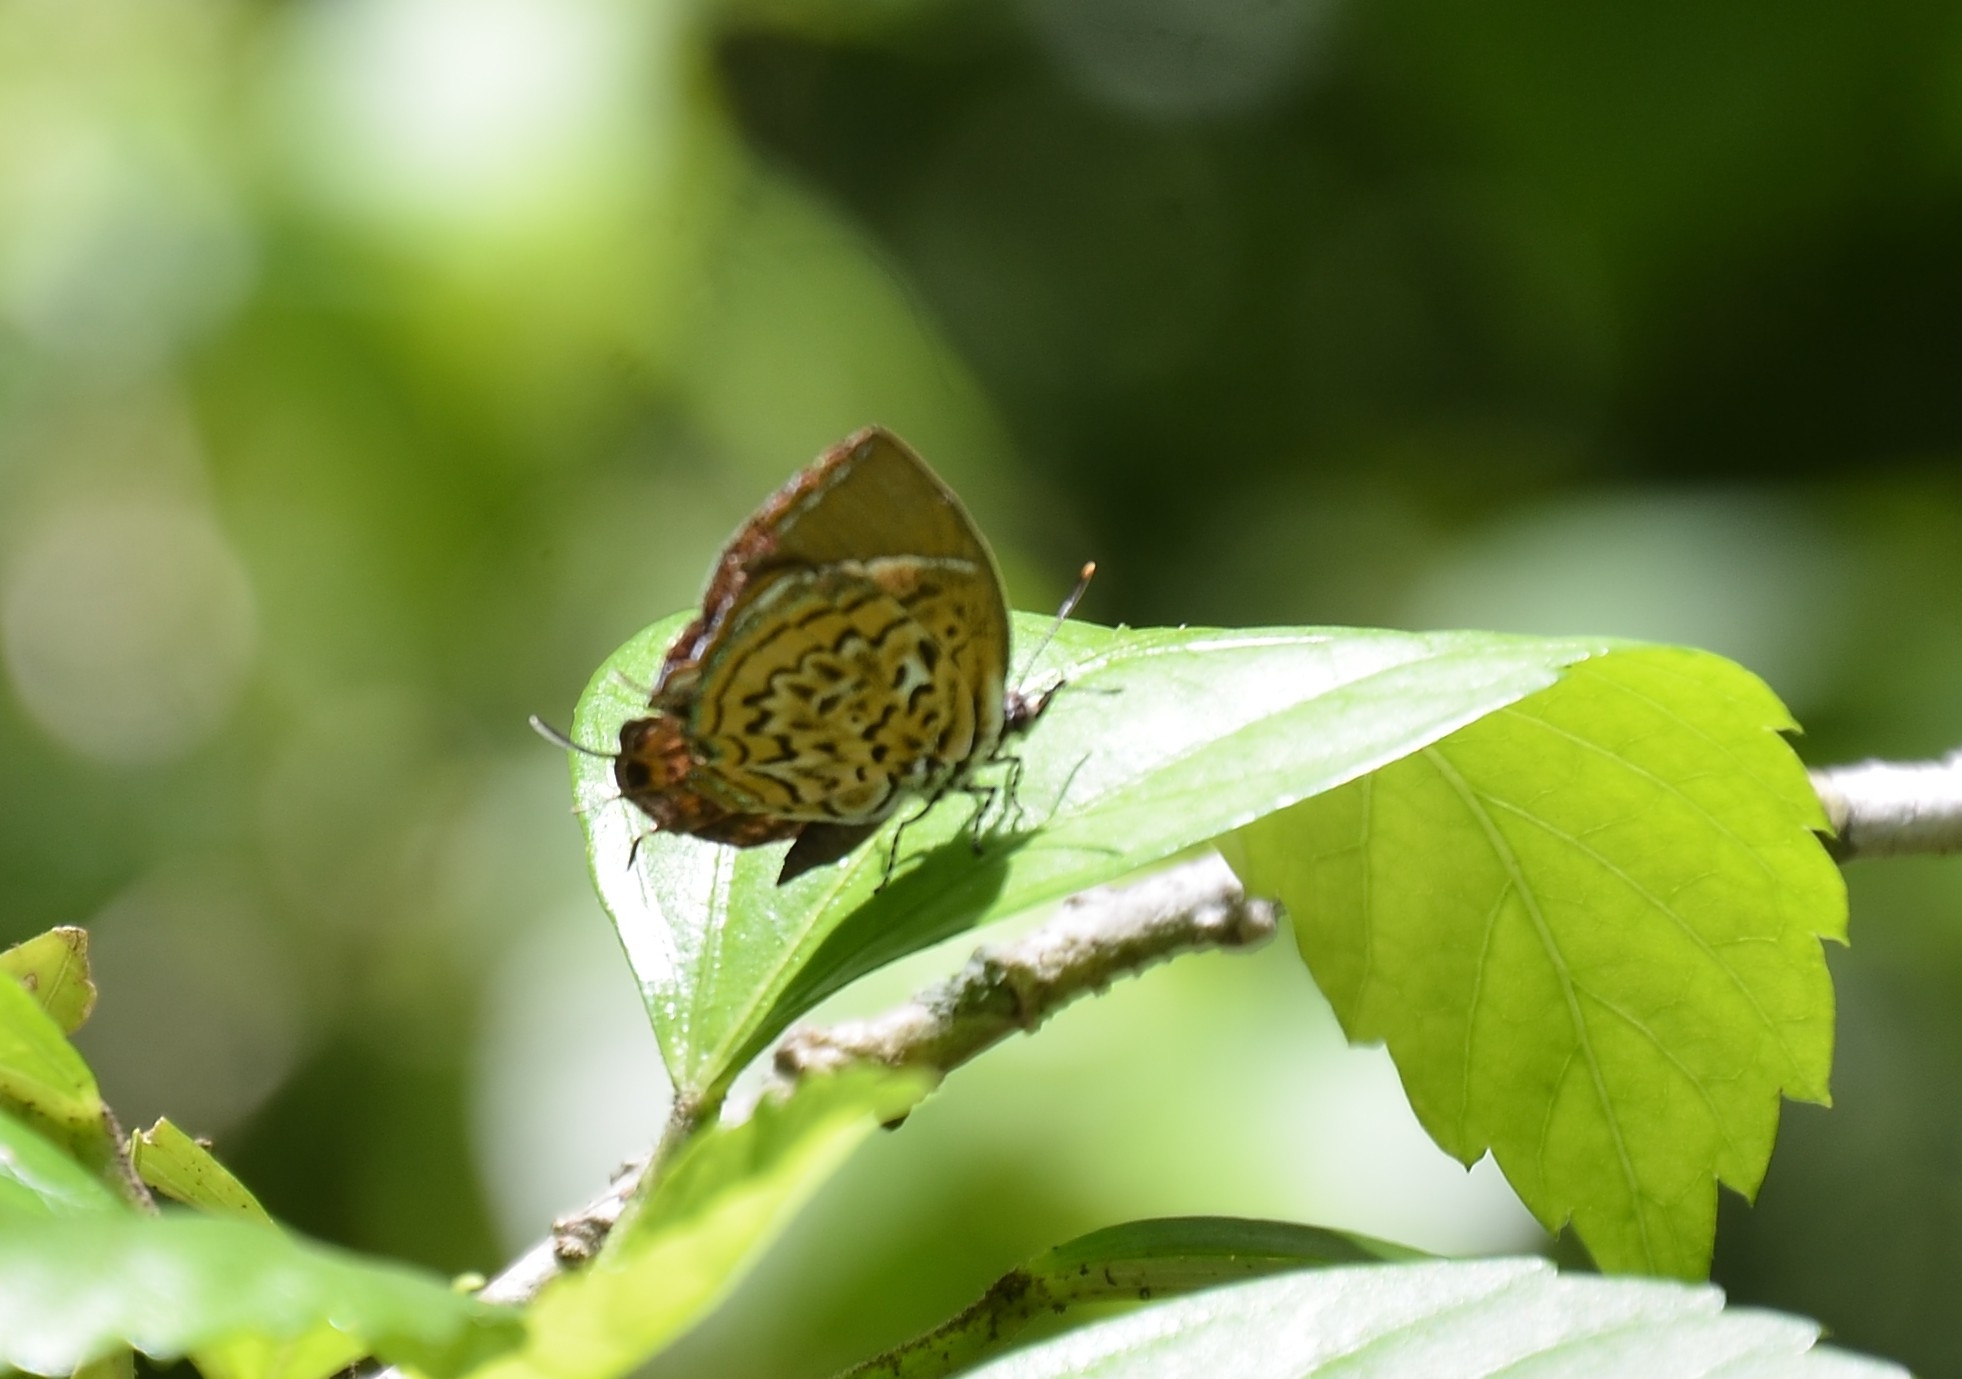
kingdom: Animalia
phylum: Arthropoda
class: Insecta
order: Lepidoptera
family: Lycaenidae
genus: Rathinda
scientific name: Rathinda amor
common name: Monkey puzzle
